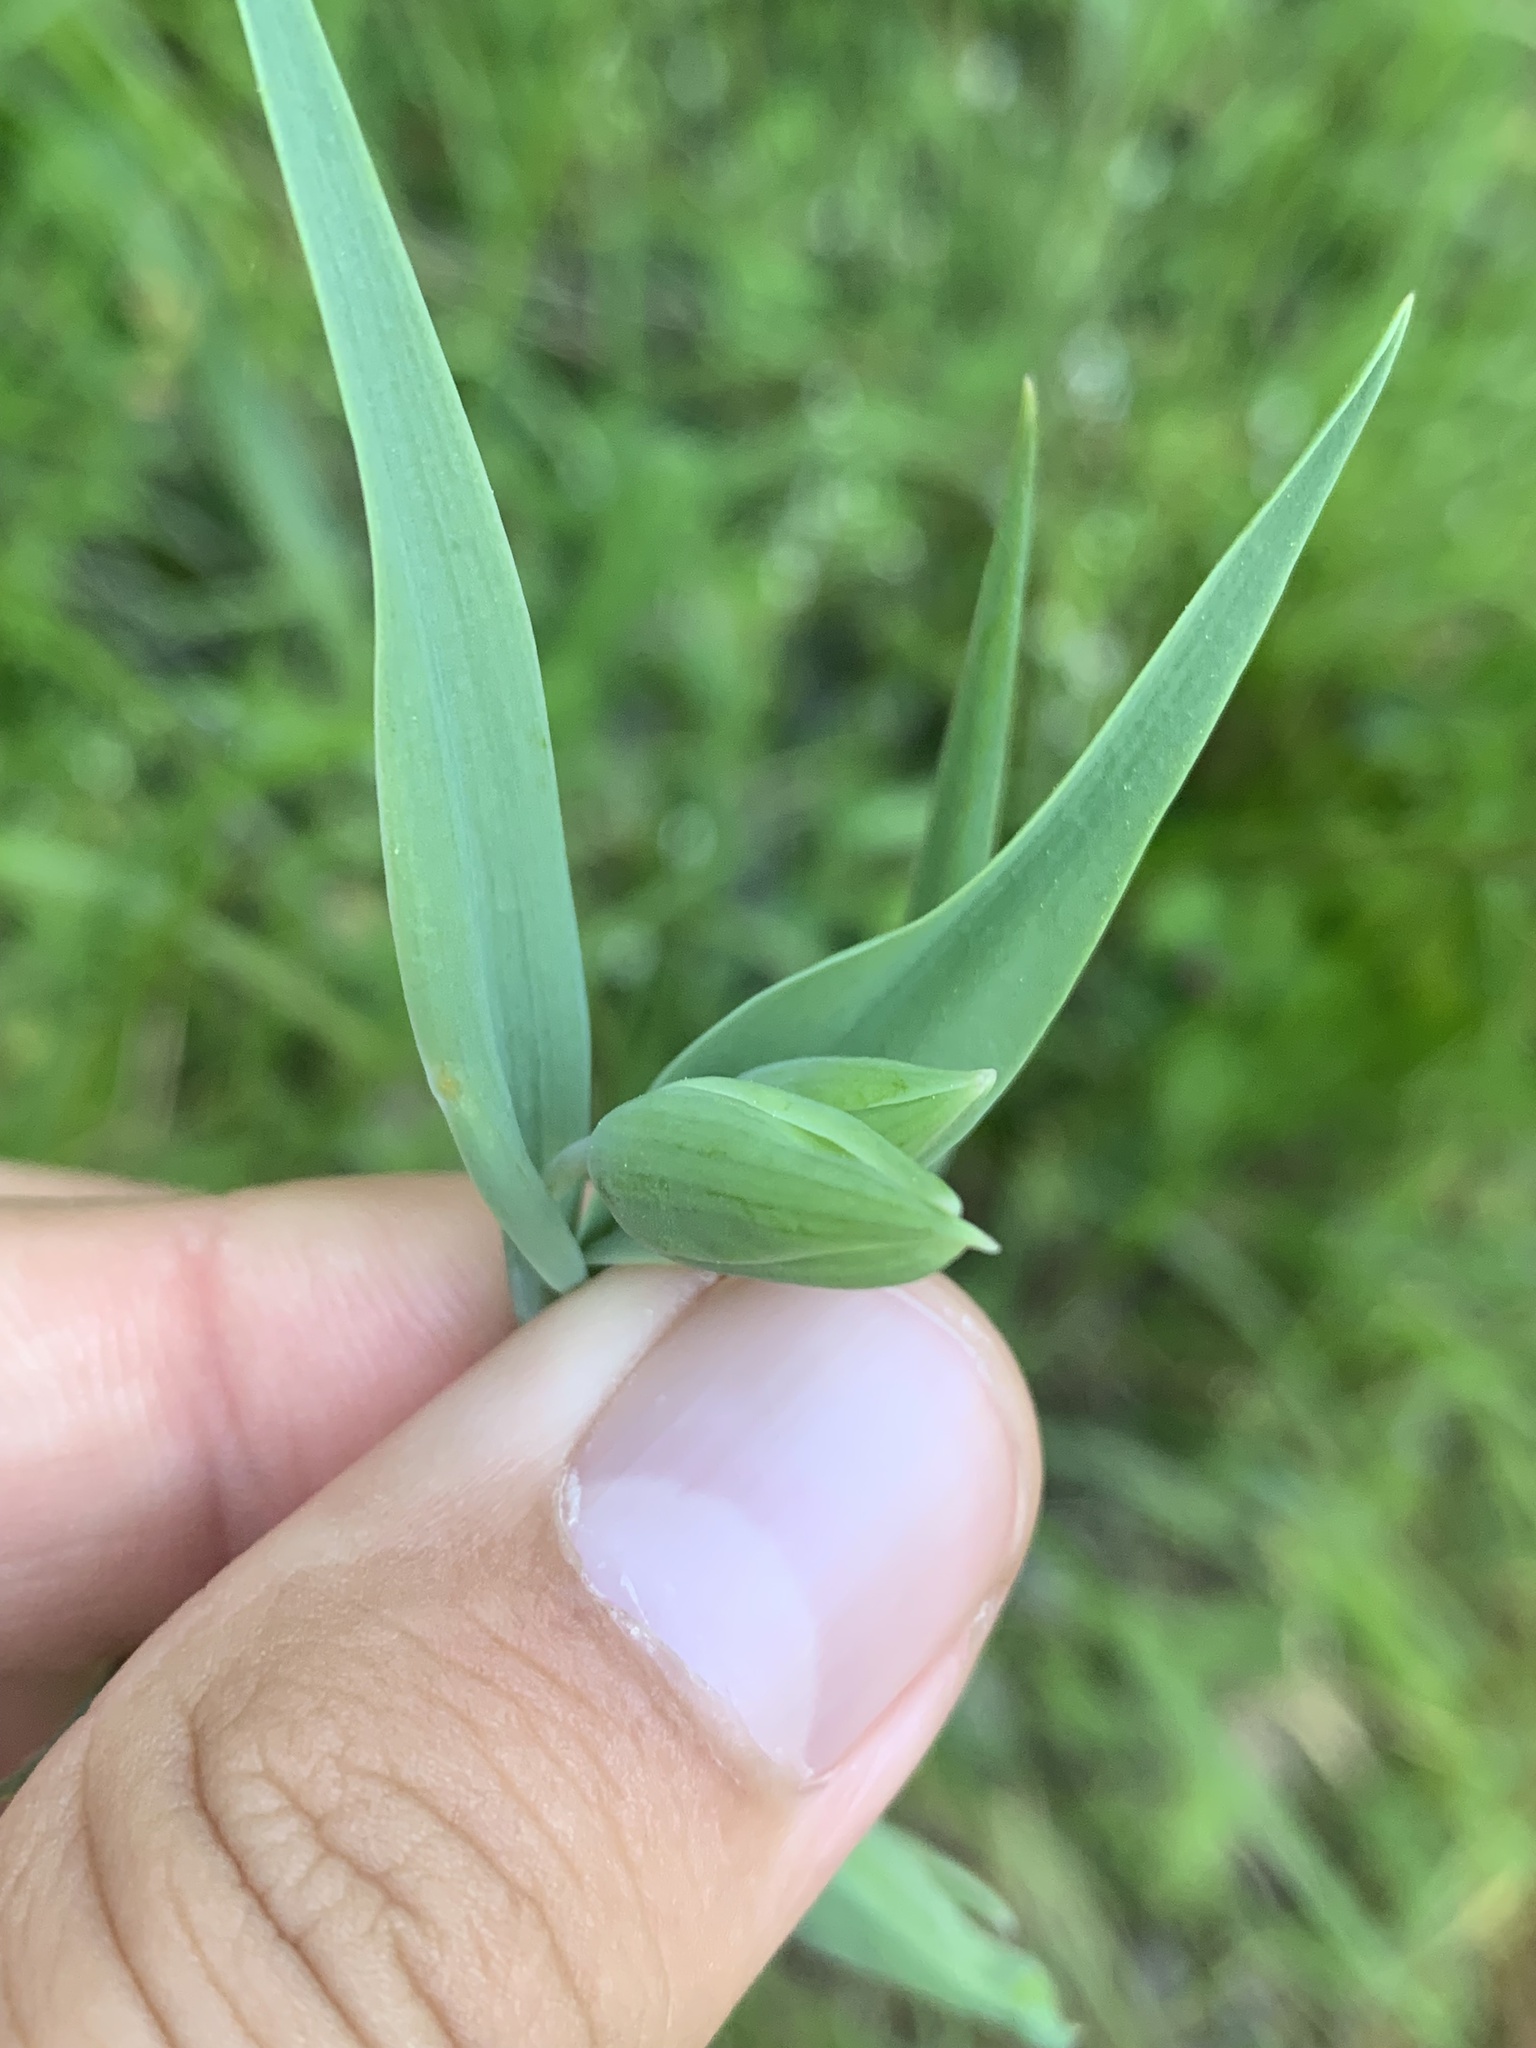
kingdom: Plantae
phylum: Tracheophyta
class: Liliopsida
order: Liliales
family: Liliaceae
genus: Calochortus
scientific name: Calochortus albus
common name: Fairy-lantern
